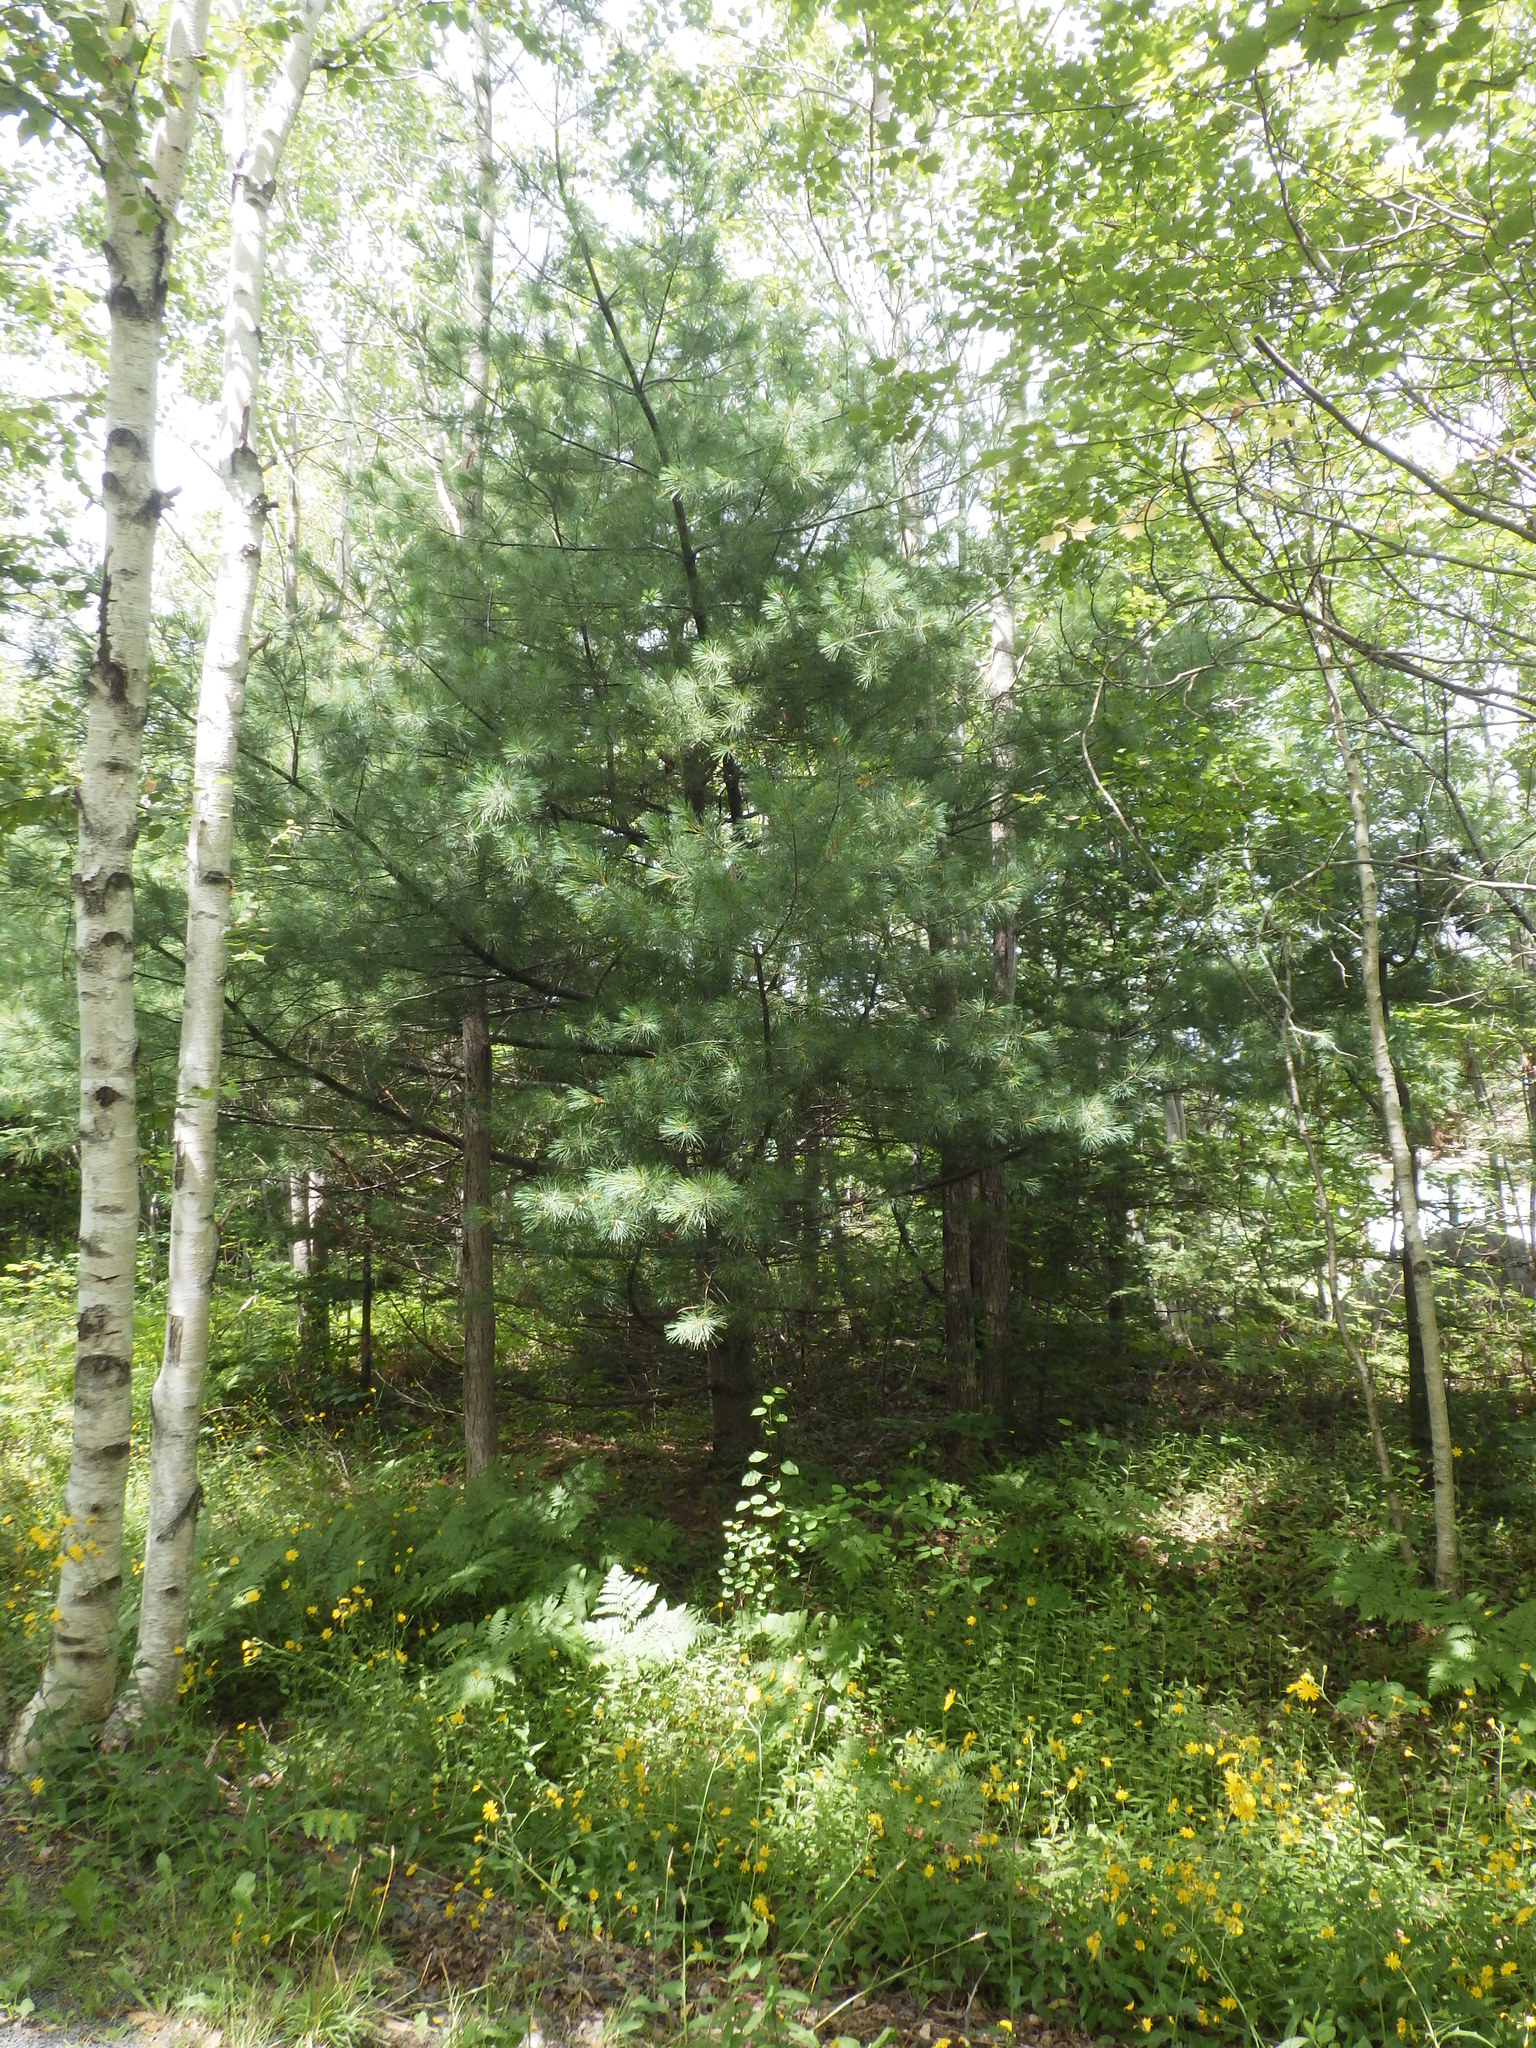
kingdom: Plantae
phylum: Tracheophyta
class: Pinopsida
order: Pinales
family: Pinaceae
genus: Pinus
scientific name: Pinus strobus
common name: Weymouth pine
